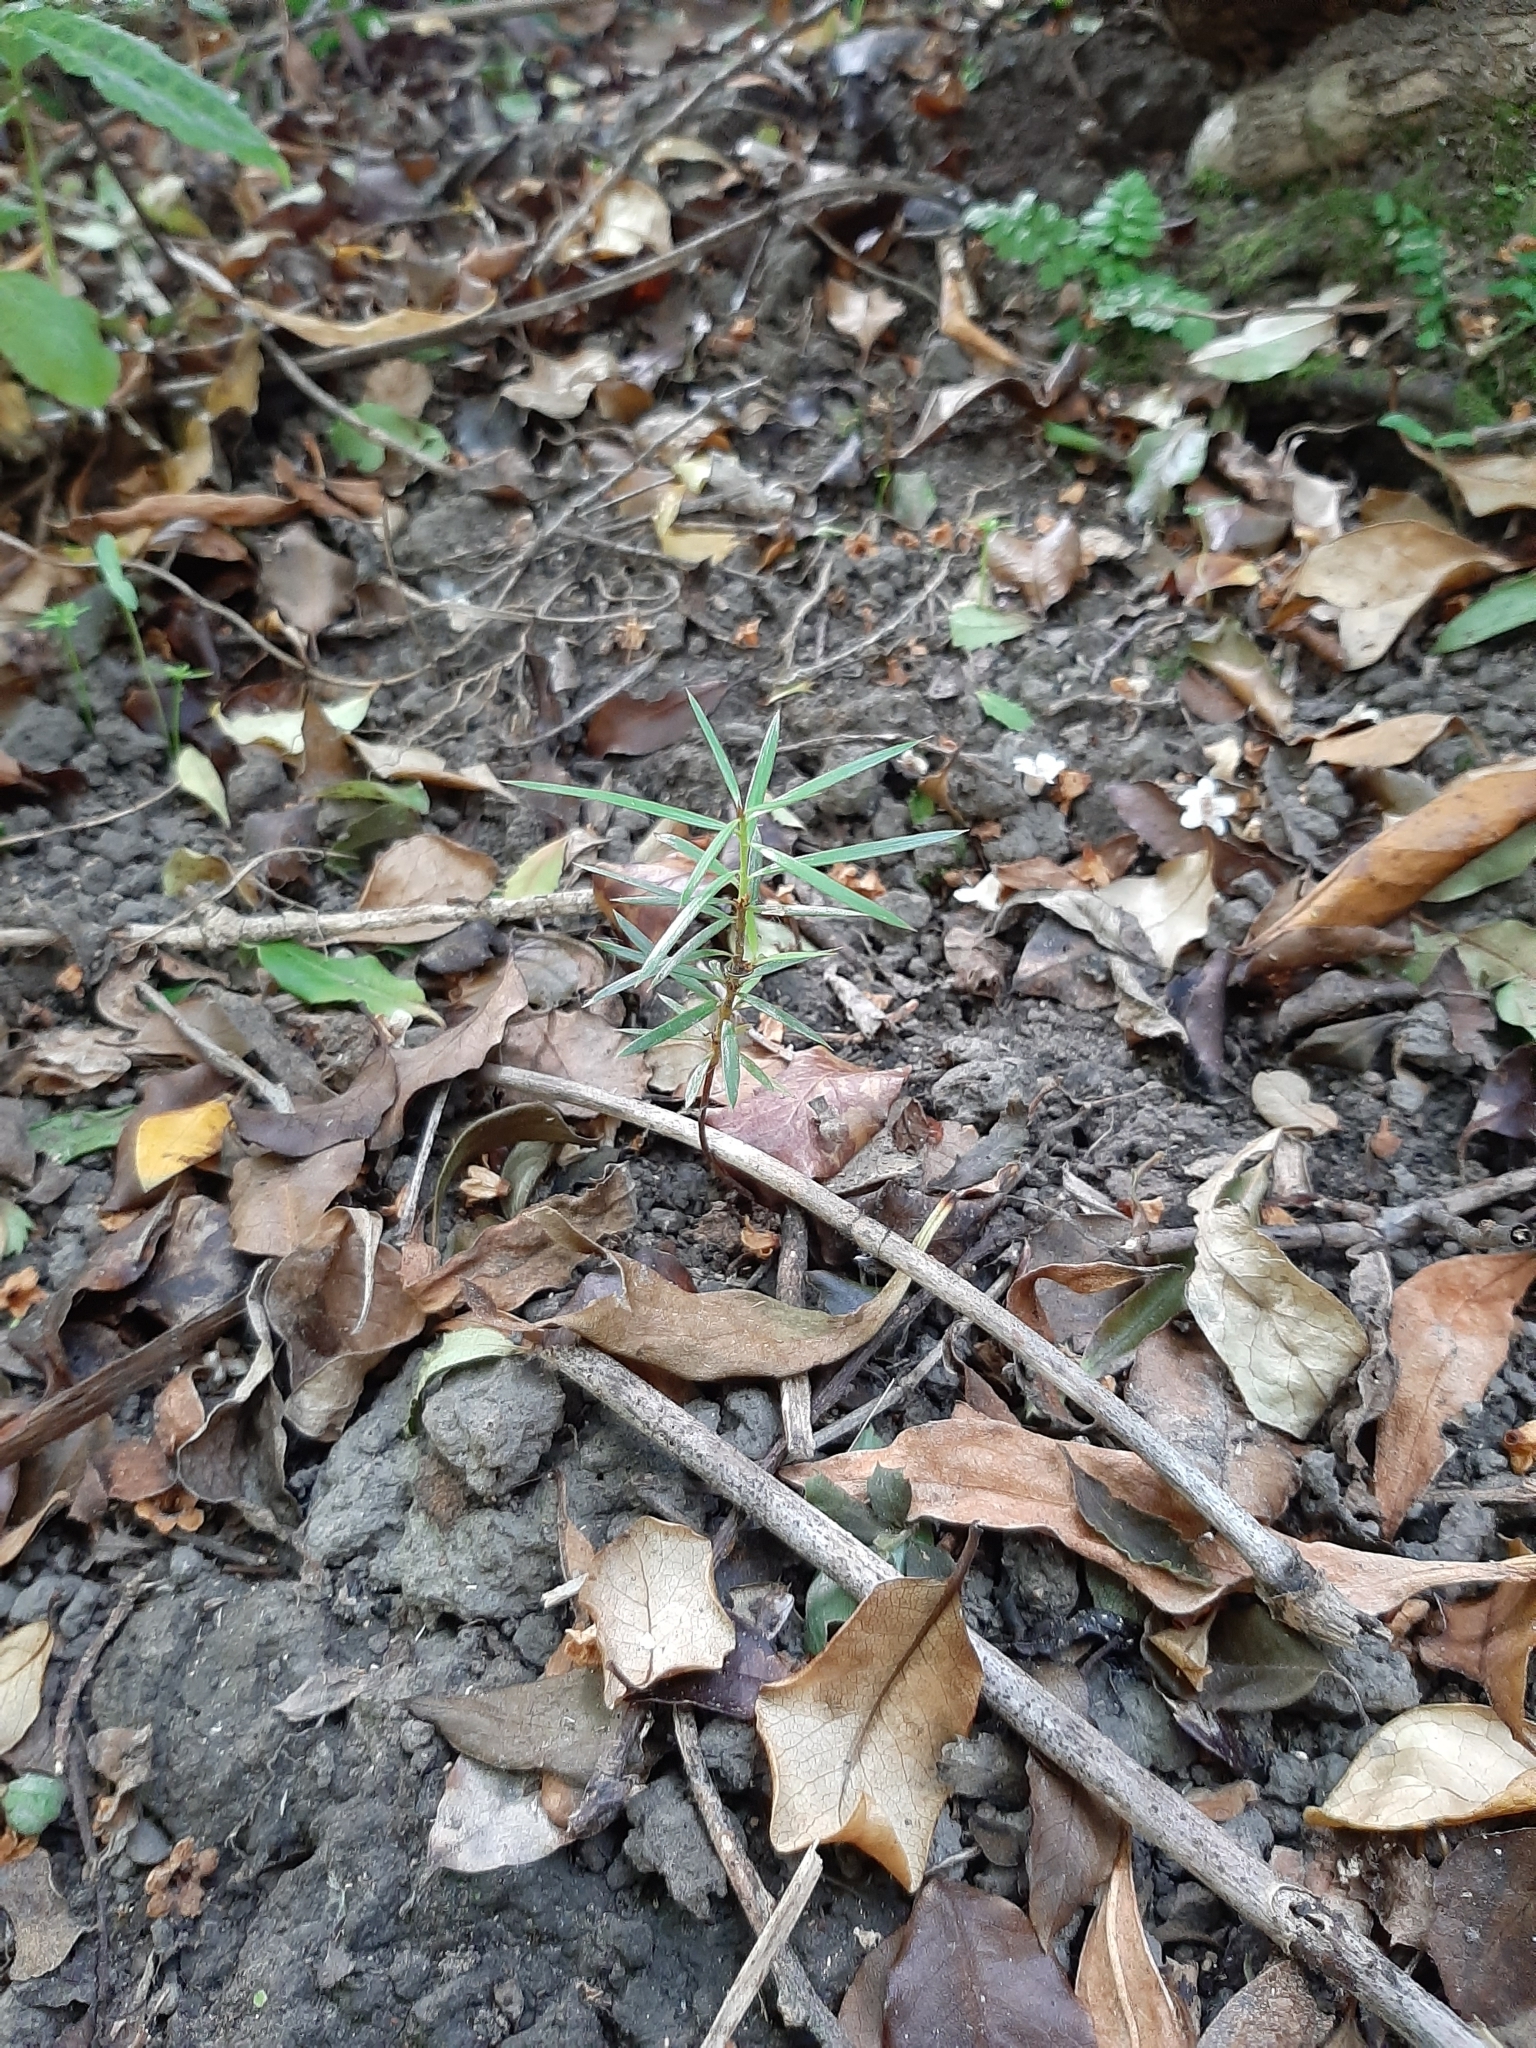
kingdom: Plantae
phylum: Tracheophyta
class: Pinopsida
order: Pinales
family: Podocarpaceae
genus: Podocarpus
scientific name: Podocarpus totara
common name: Totara
